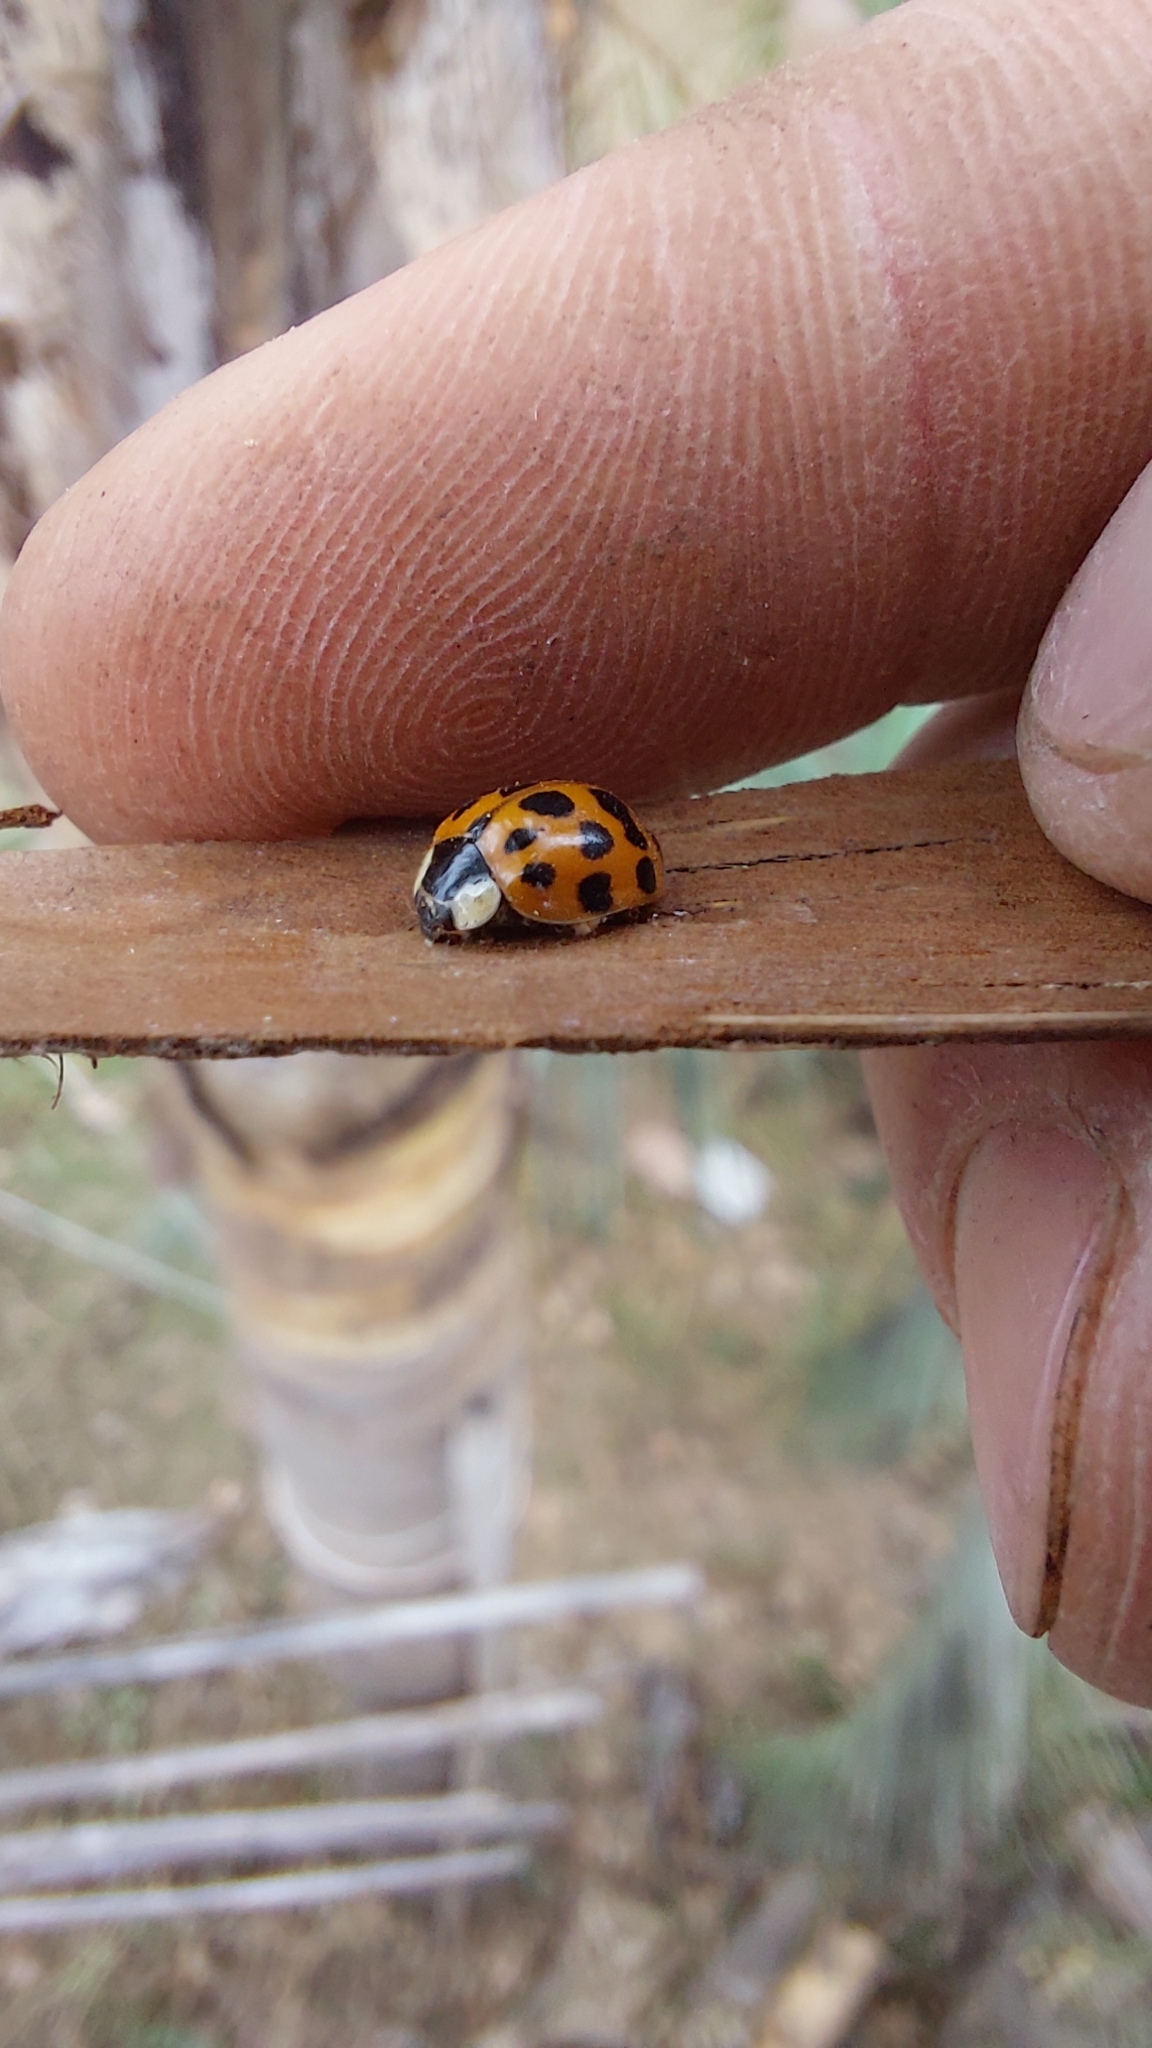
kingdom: Animalia
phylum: Arthropoda
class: Insecta
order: Coleoptera
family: Coccinellidae
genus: Harmonia
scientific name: Harmonia axyridis
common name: Harlequin ladybird
